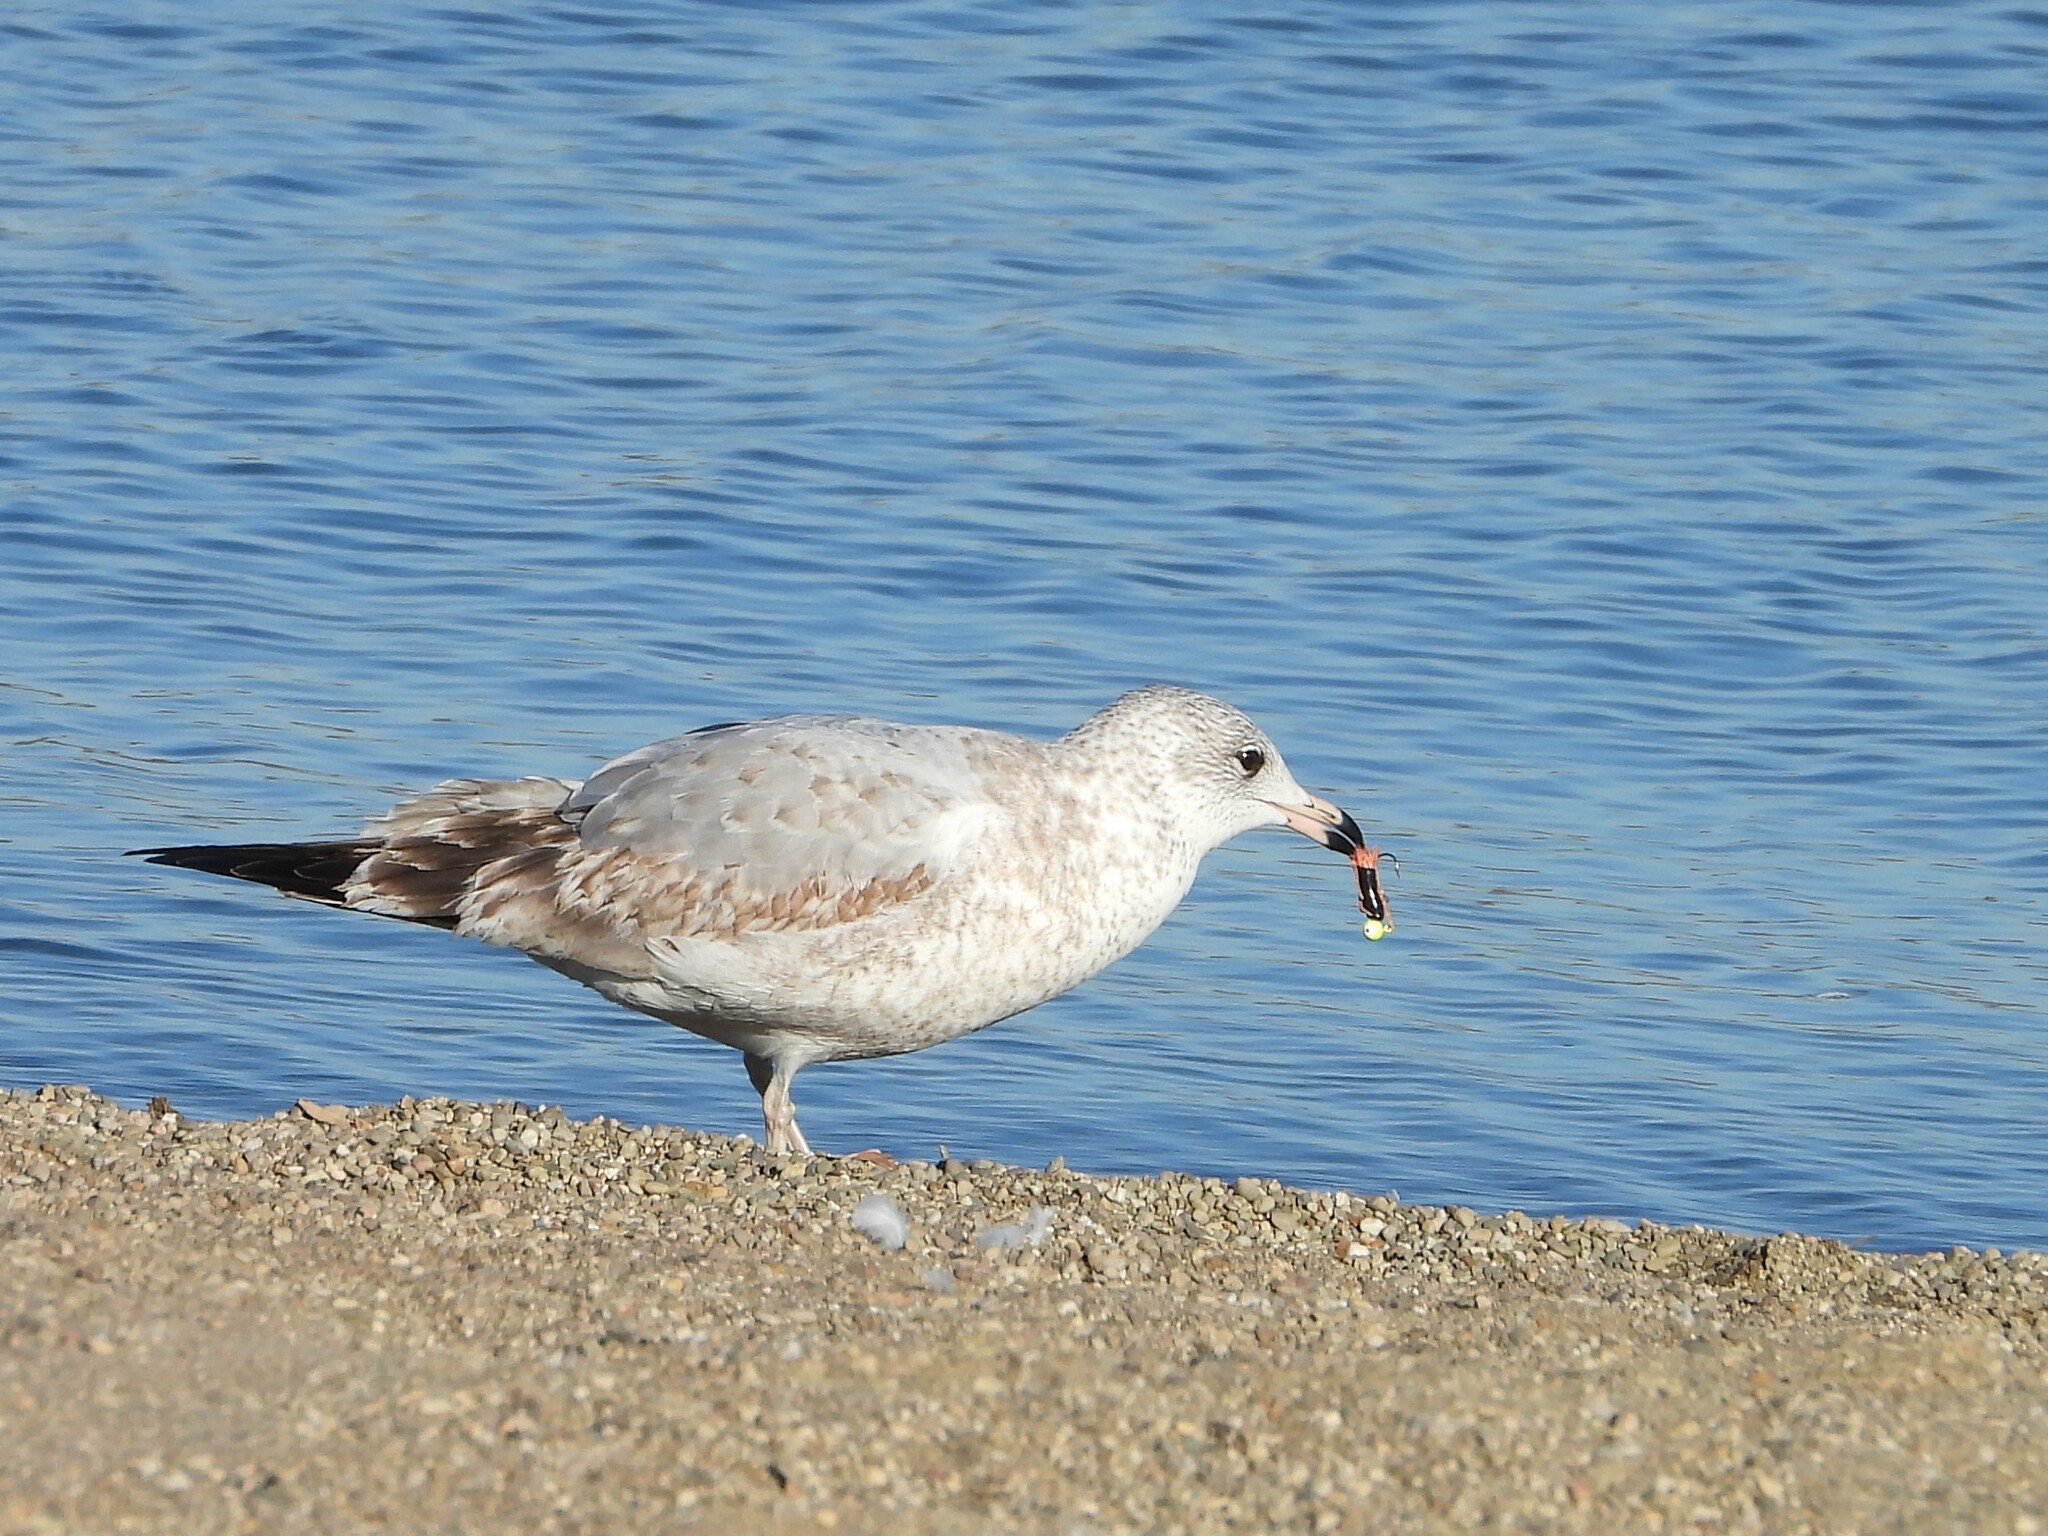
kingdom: Animalia
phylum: Chordata
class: Aves
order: Charadriiformes
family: Laridae
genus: Larus
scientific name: Larus delawarensis
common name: Ring-billed gull
